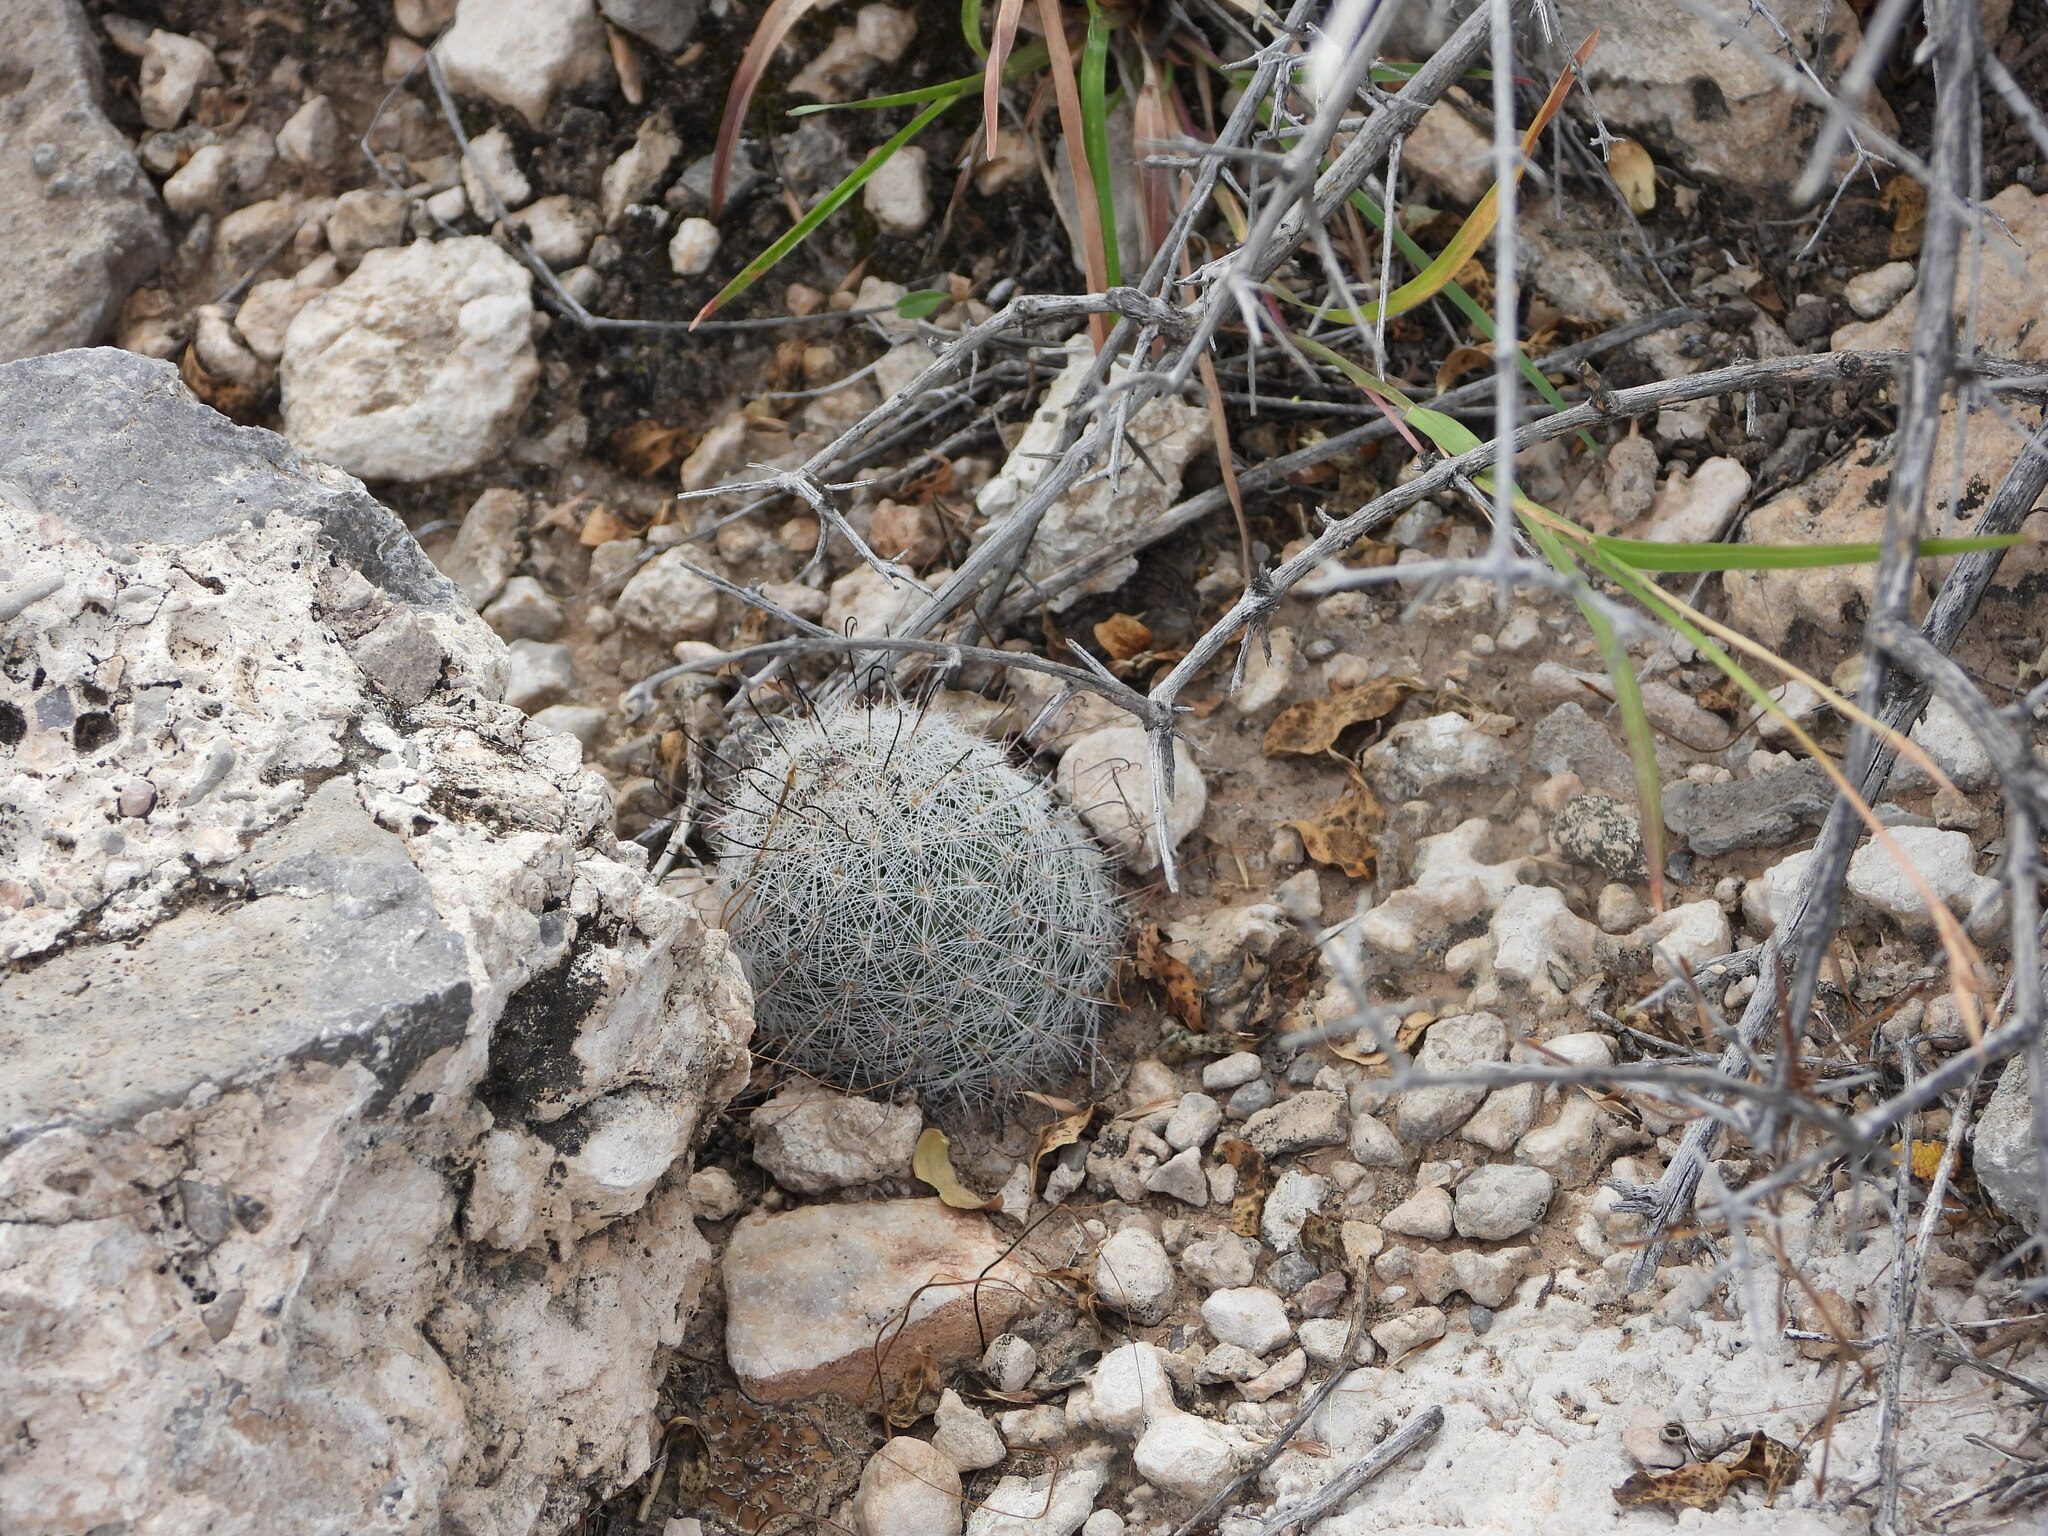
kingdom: Plantae
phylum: Tracheophyta
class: Magnoliopsida
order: Caryophyllales
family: Cactaceae
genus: Cochemiea
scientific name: Cochemiea grahamii
